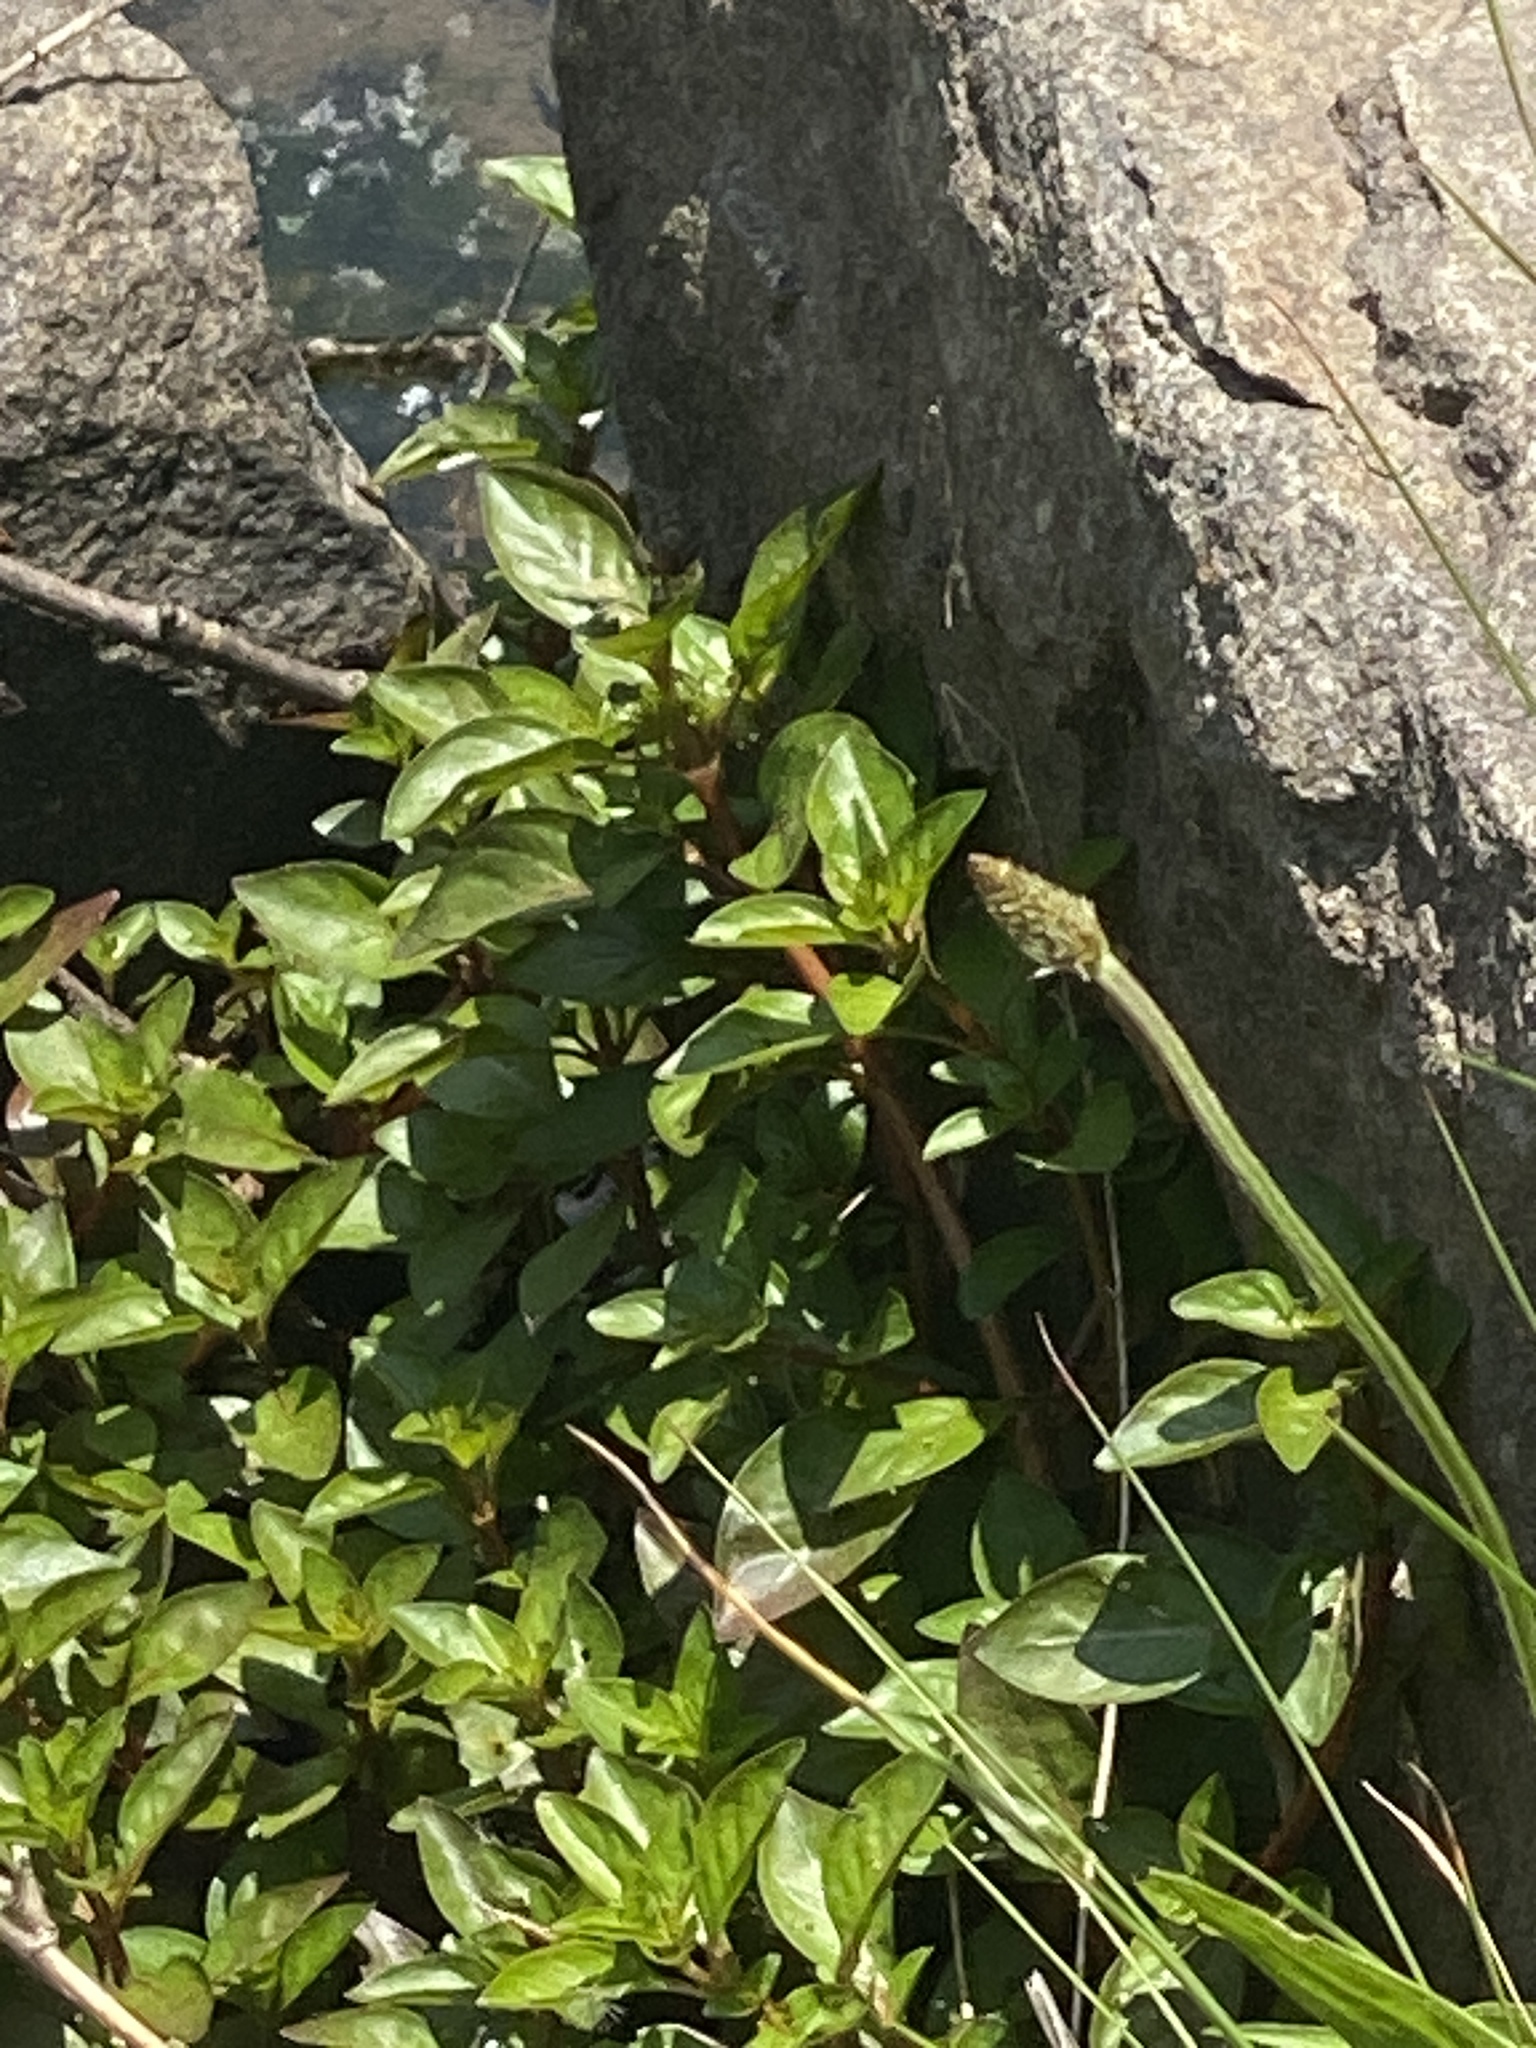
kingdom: Plantae
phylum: Tracheophyta
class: Magnoliopsida
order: Myrtales
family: Onagraceae
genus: Ludwigia
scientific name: Ludwigia palustris
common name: Hampshire-purslane
